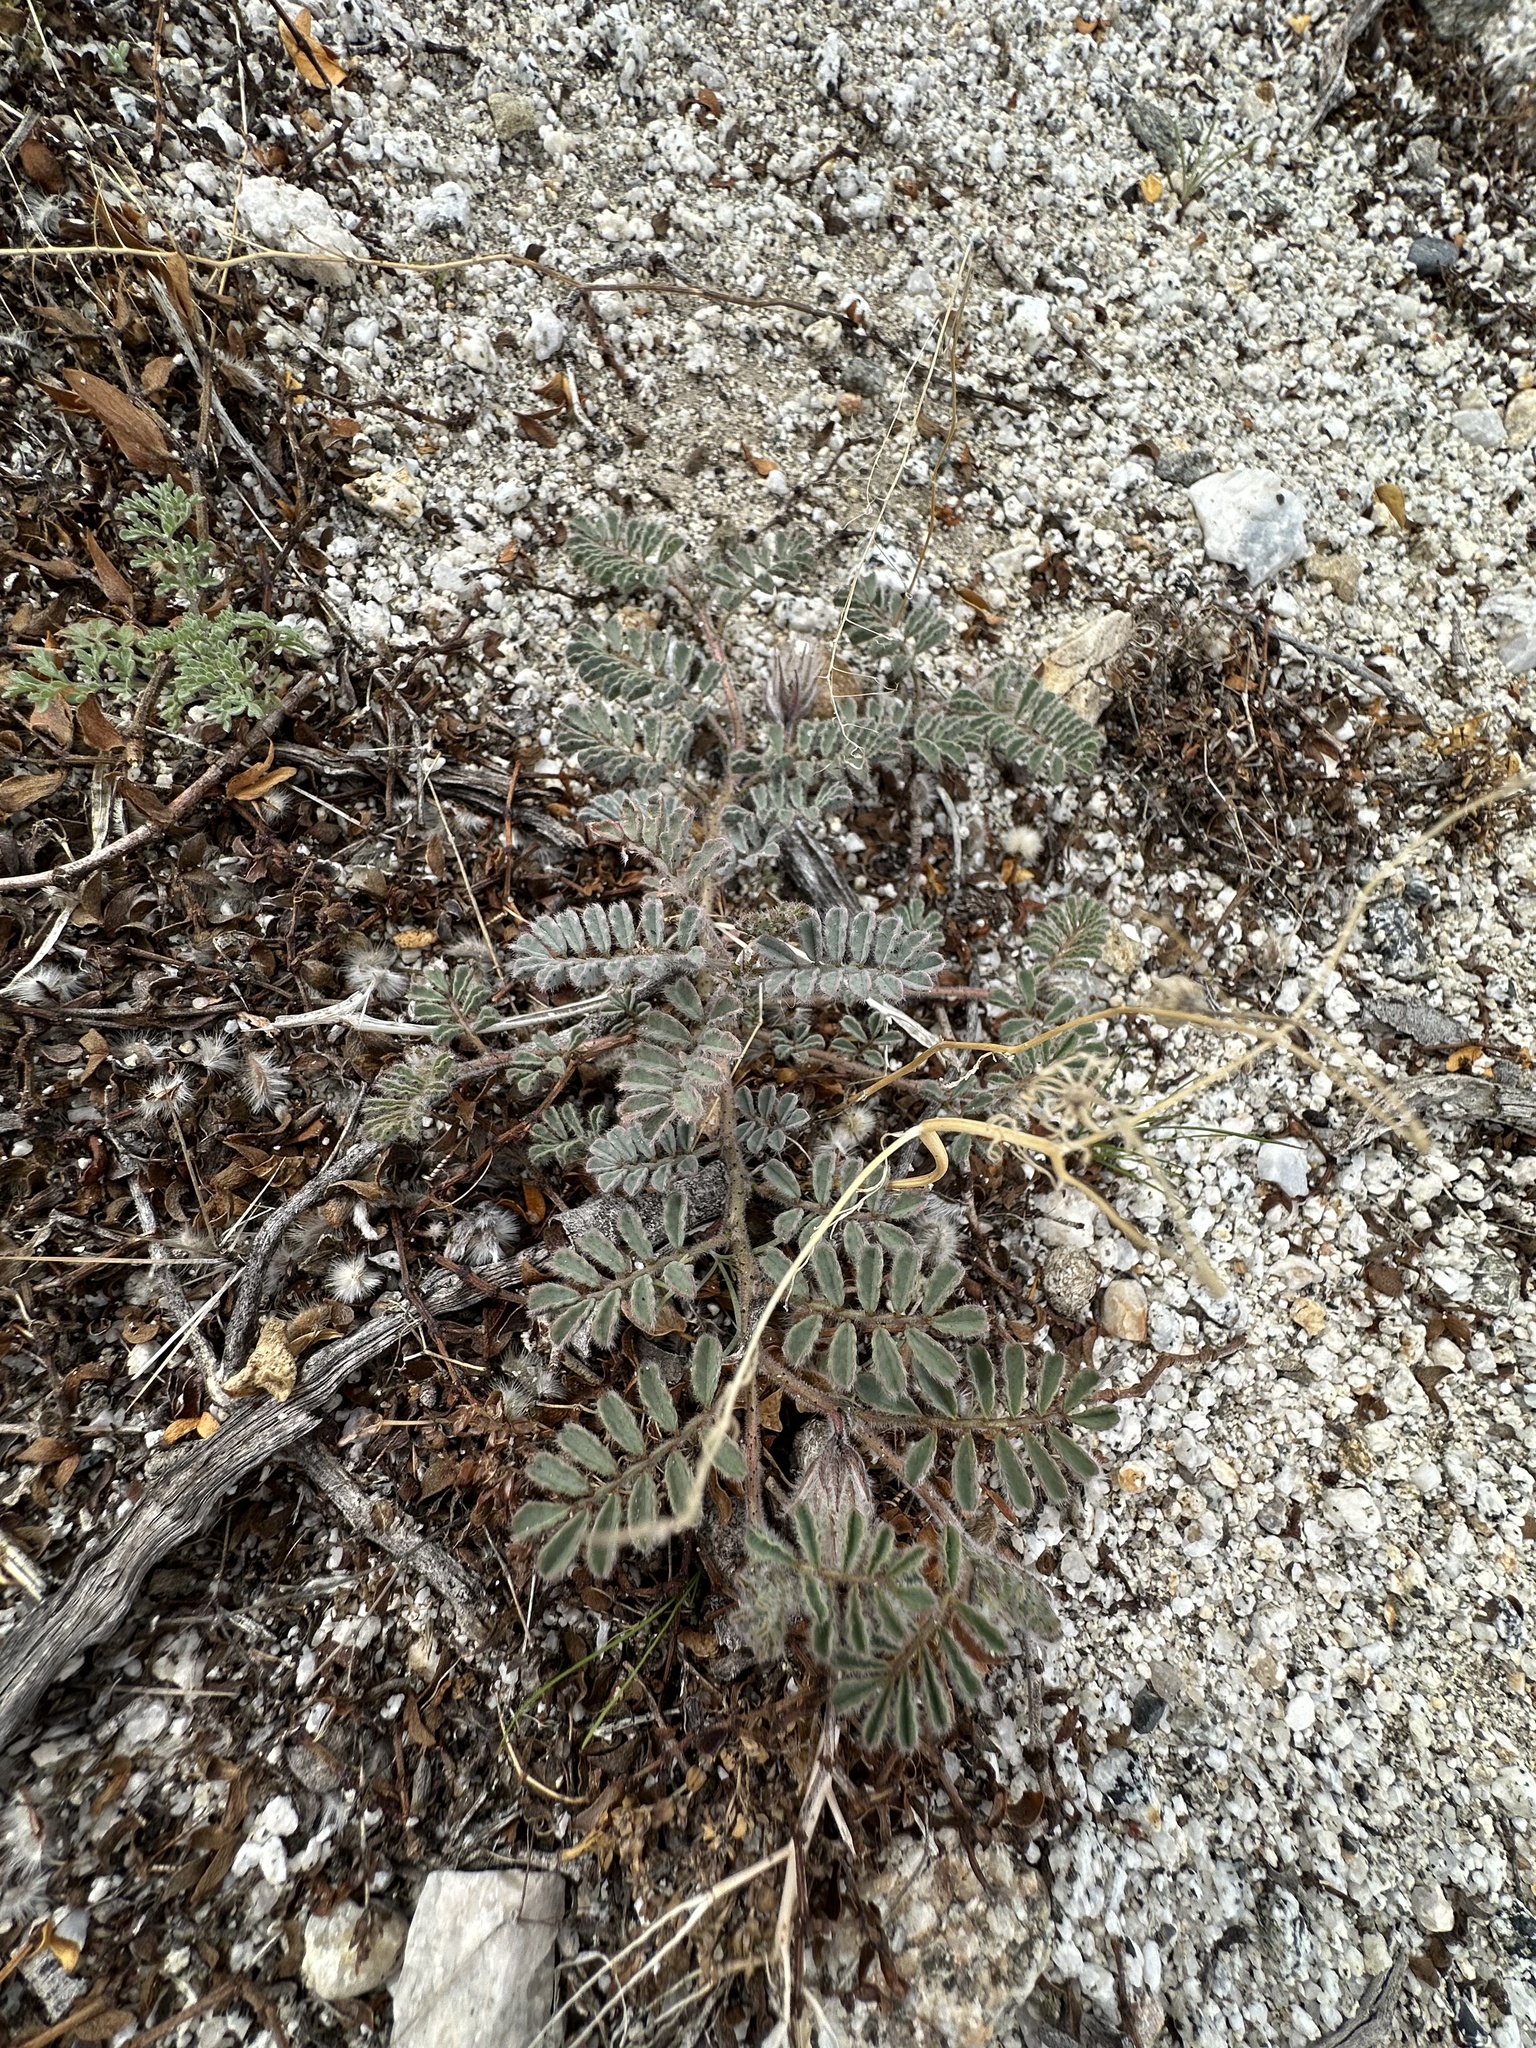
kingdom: Plantae
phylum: Tracheophyta
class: Magnoliopsida
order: Fabales
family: Fabaceae
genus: Dalea
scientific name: Dalea mollissima
